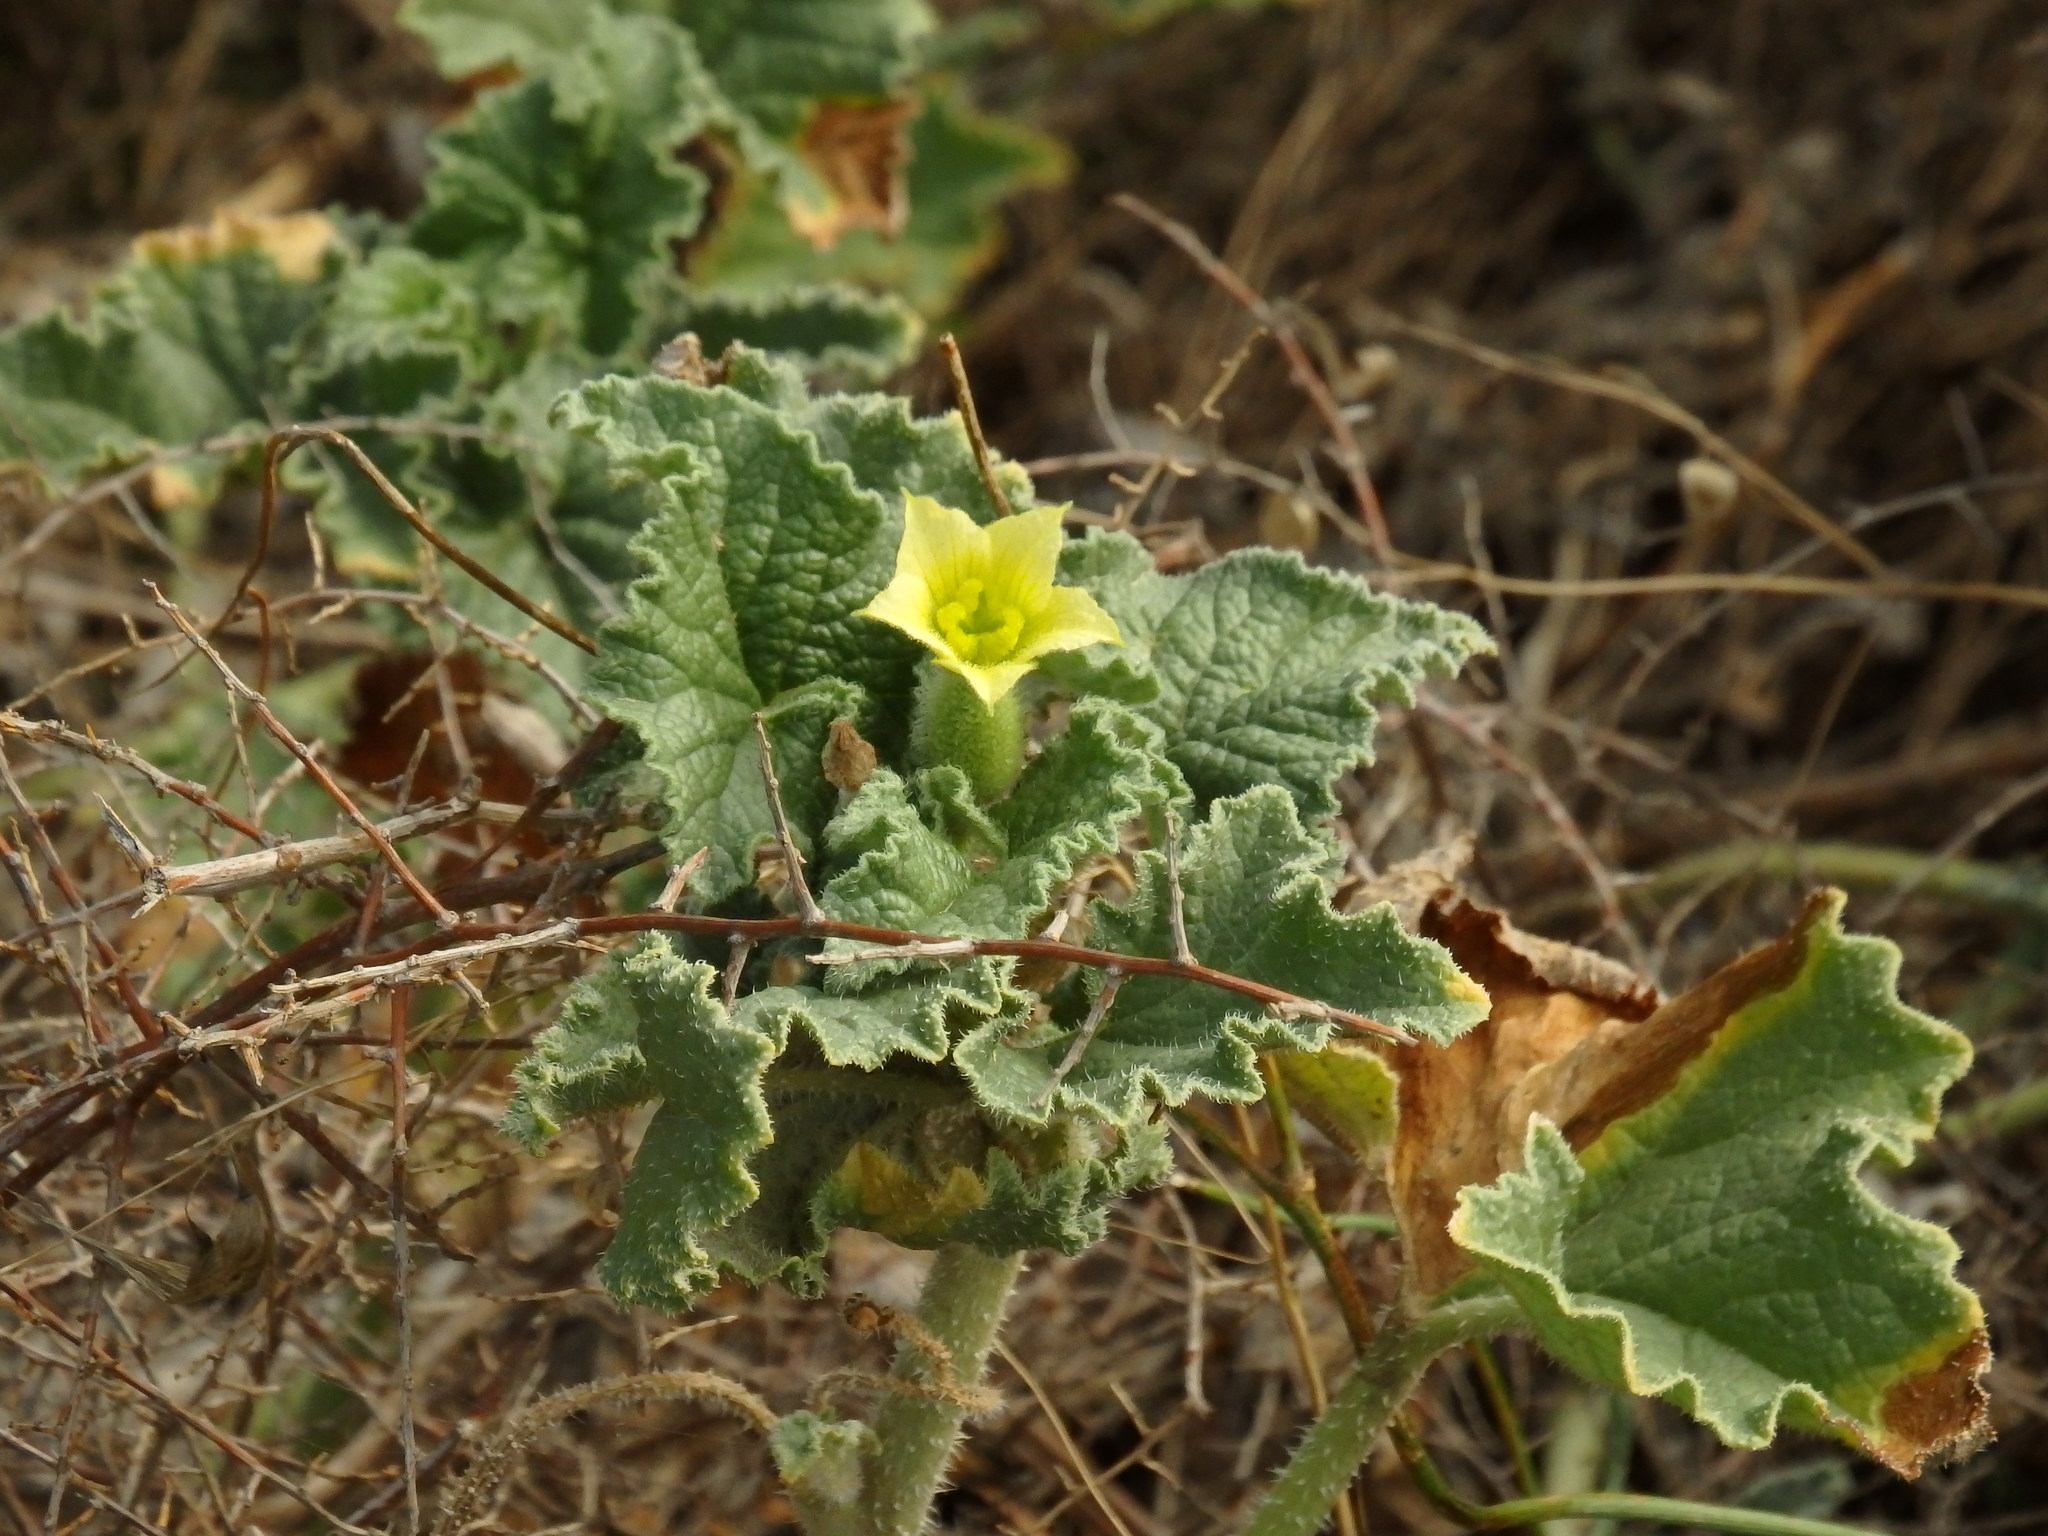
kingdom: Plantae
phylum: Tracheophyta
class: Magnoliopsida
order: Cucurbitales
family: Cucurbitaceae
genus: Ecballium
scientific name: Ecballium elaterium
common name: Squirting cucumber
